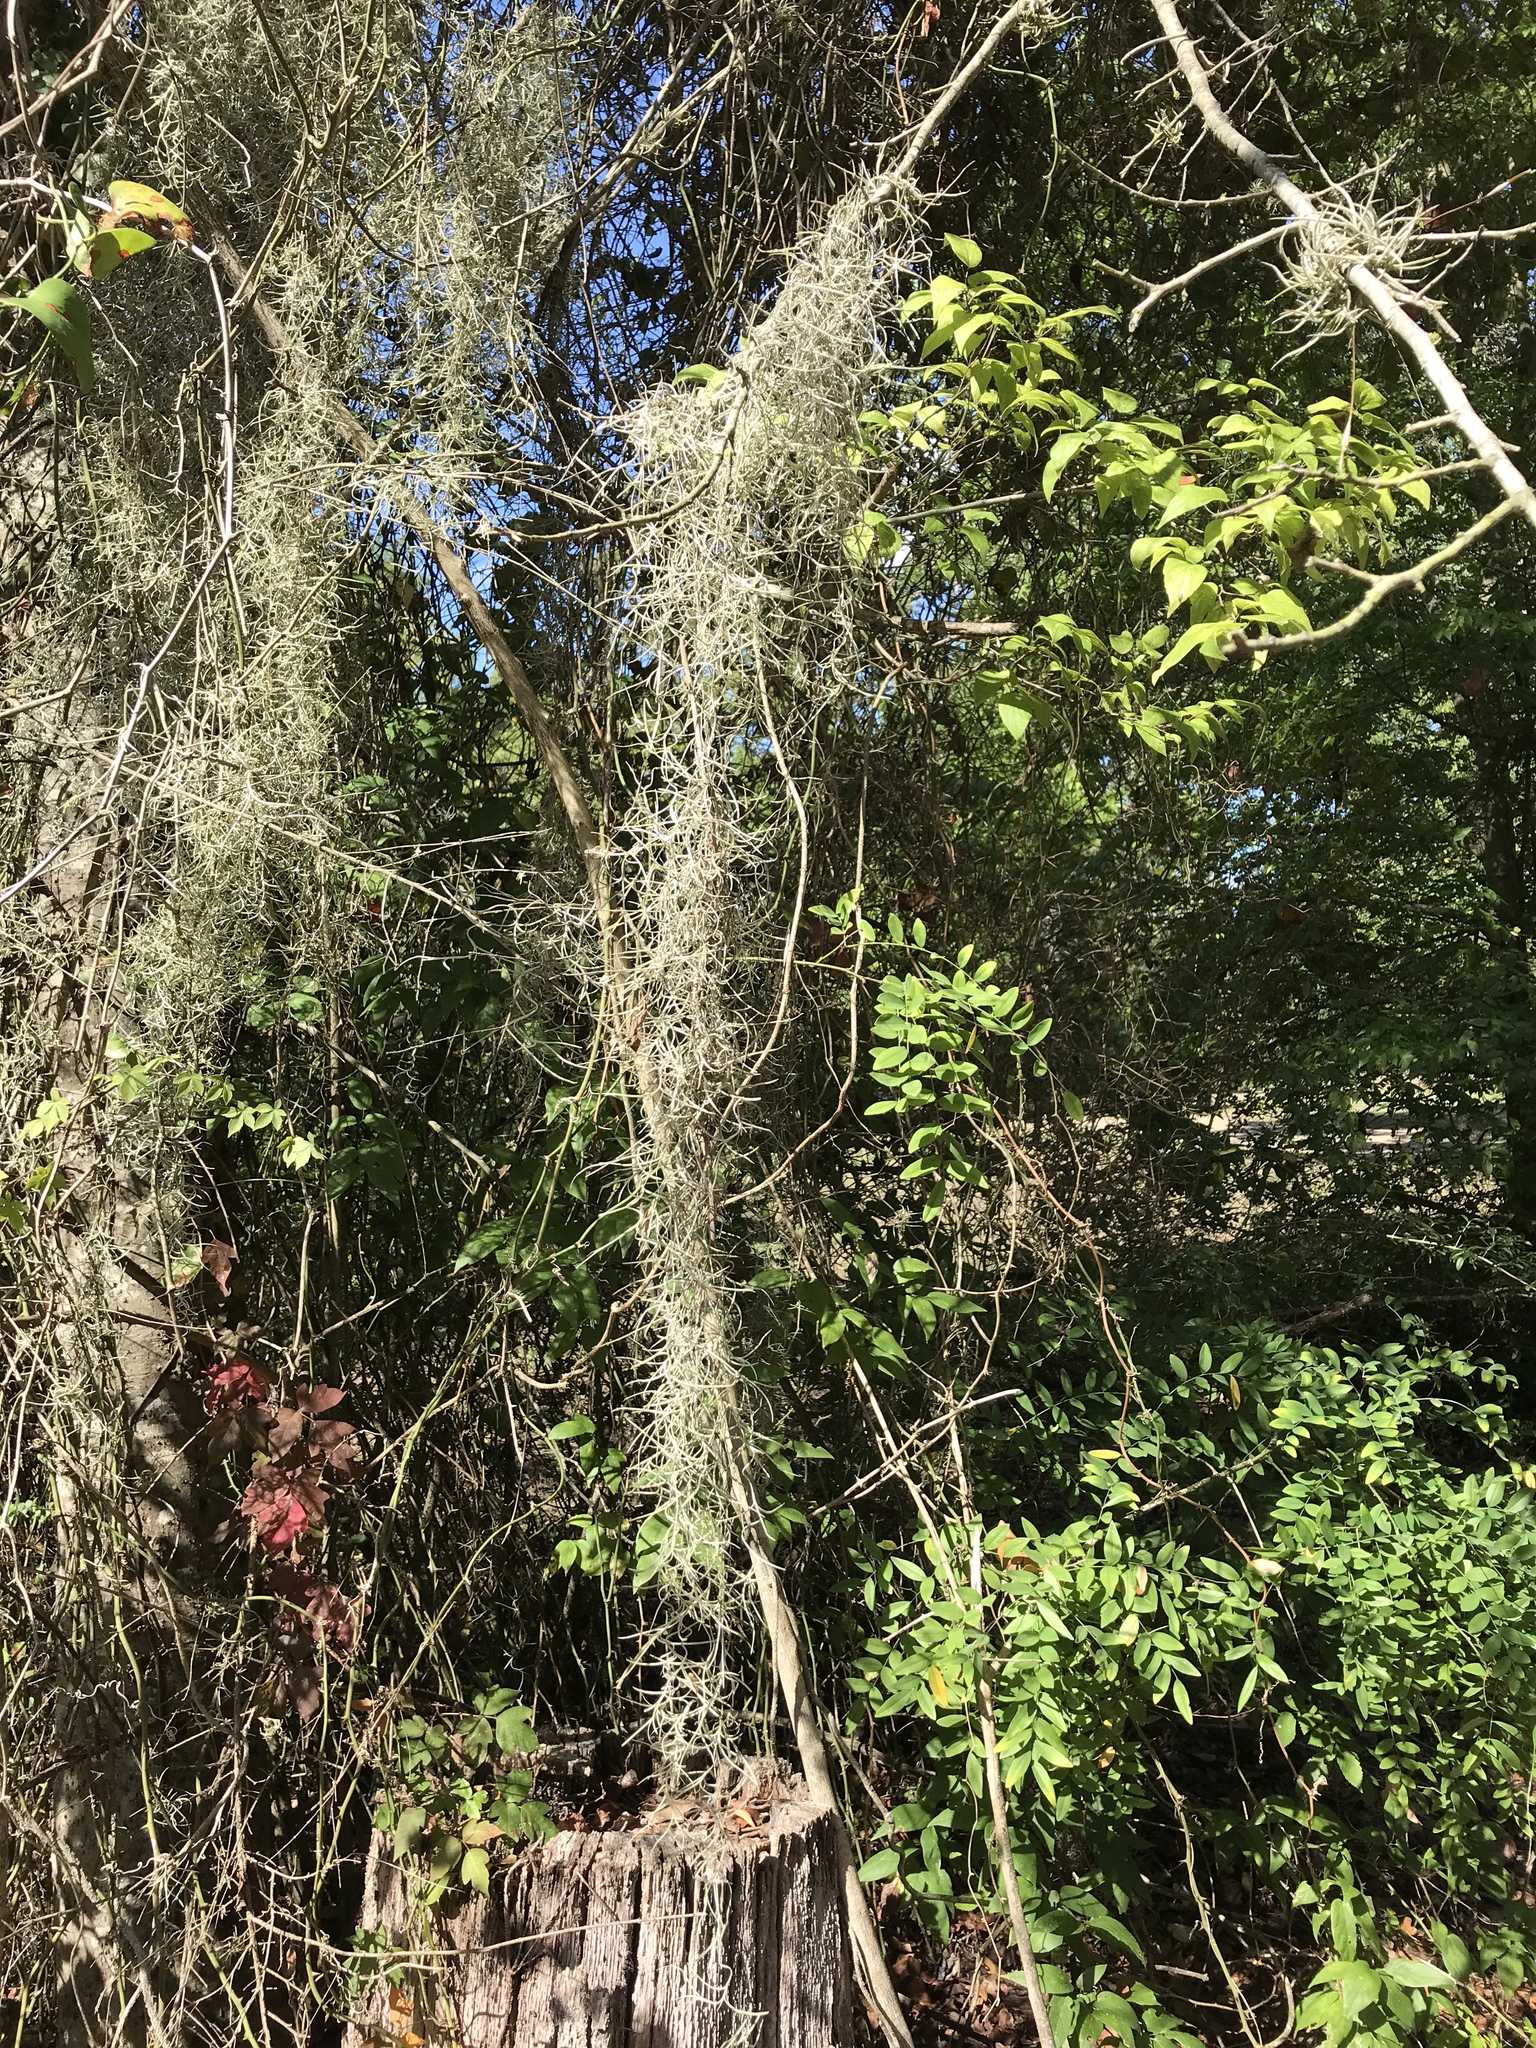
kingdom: Plantae
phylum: Tracheophyta
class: Liliopsida
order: Poales
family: Bromeliaceae
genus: Tillandsia
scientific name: Tillandsia usneoides
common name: Spanish moss
